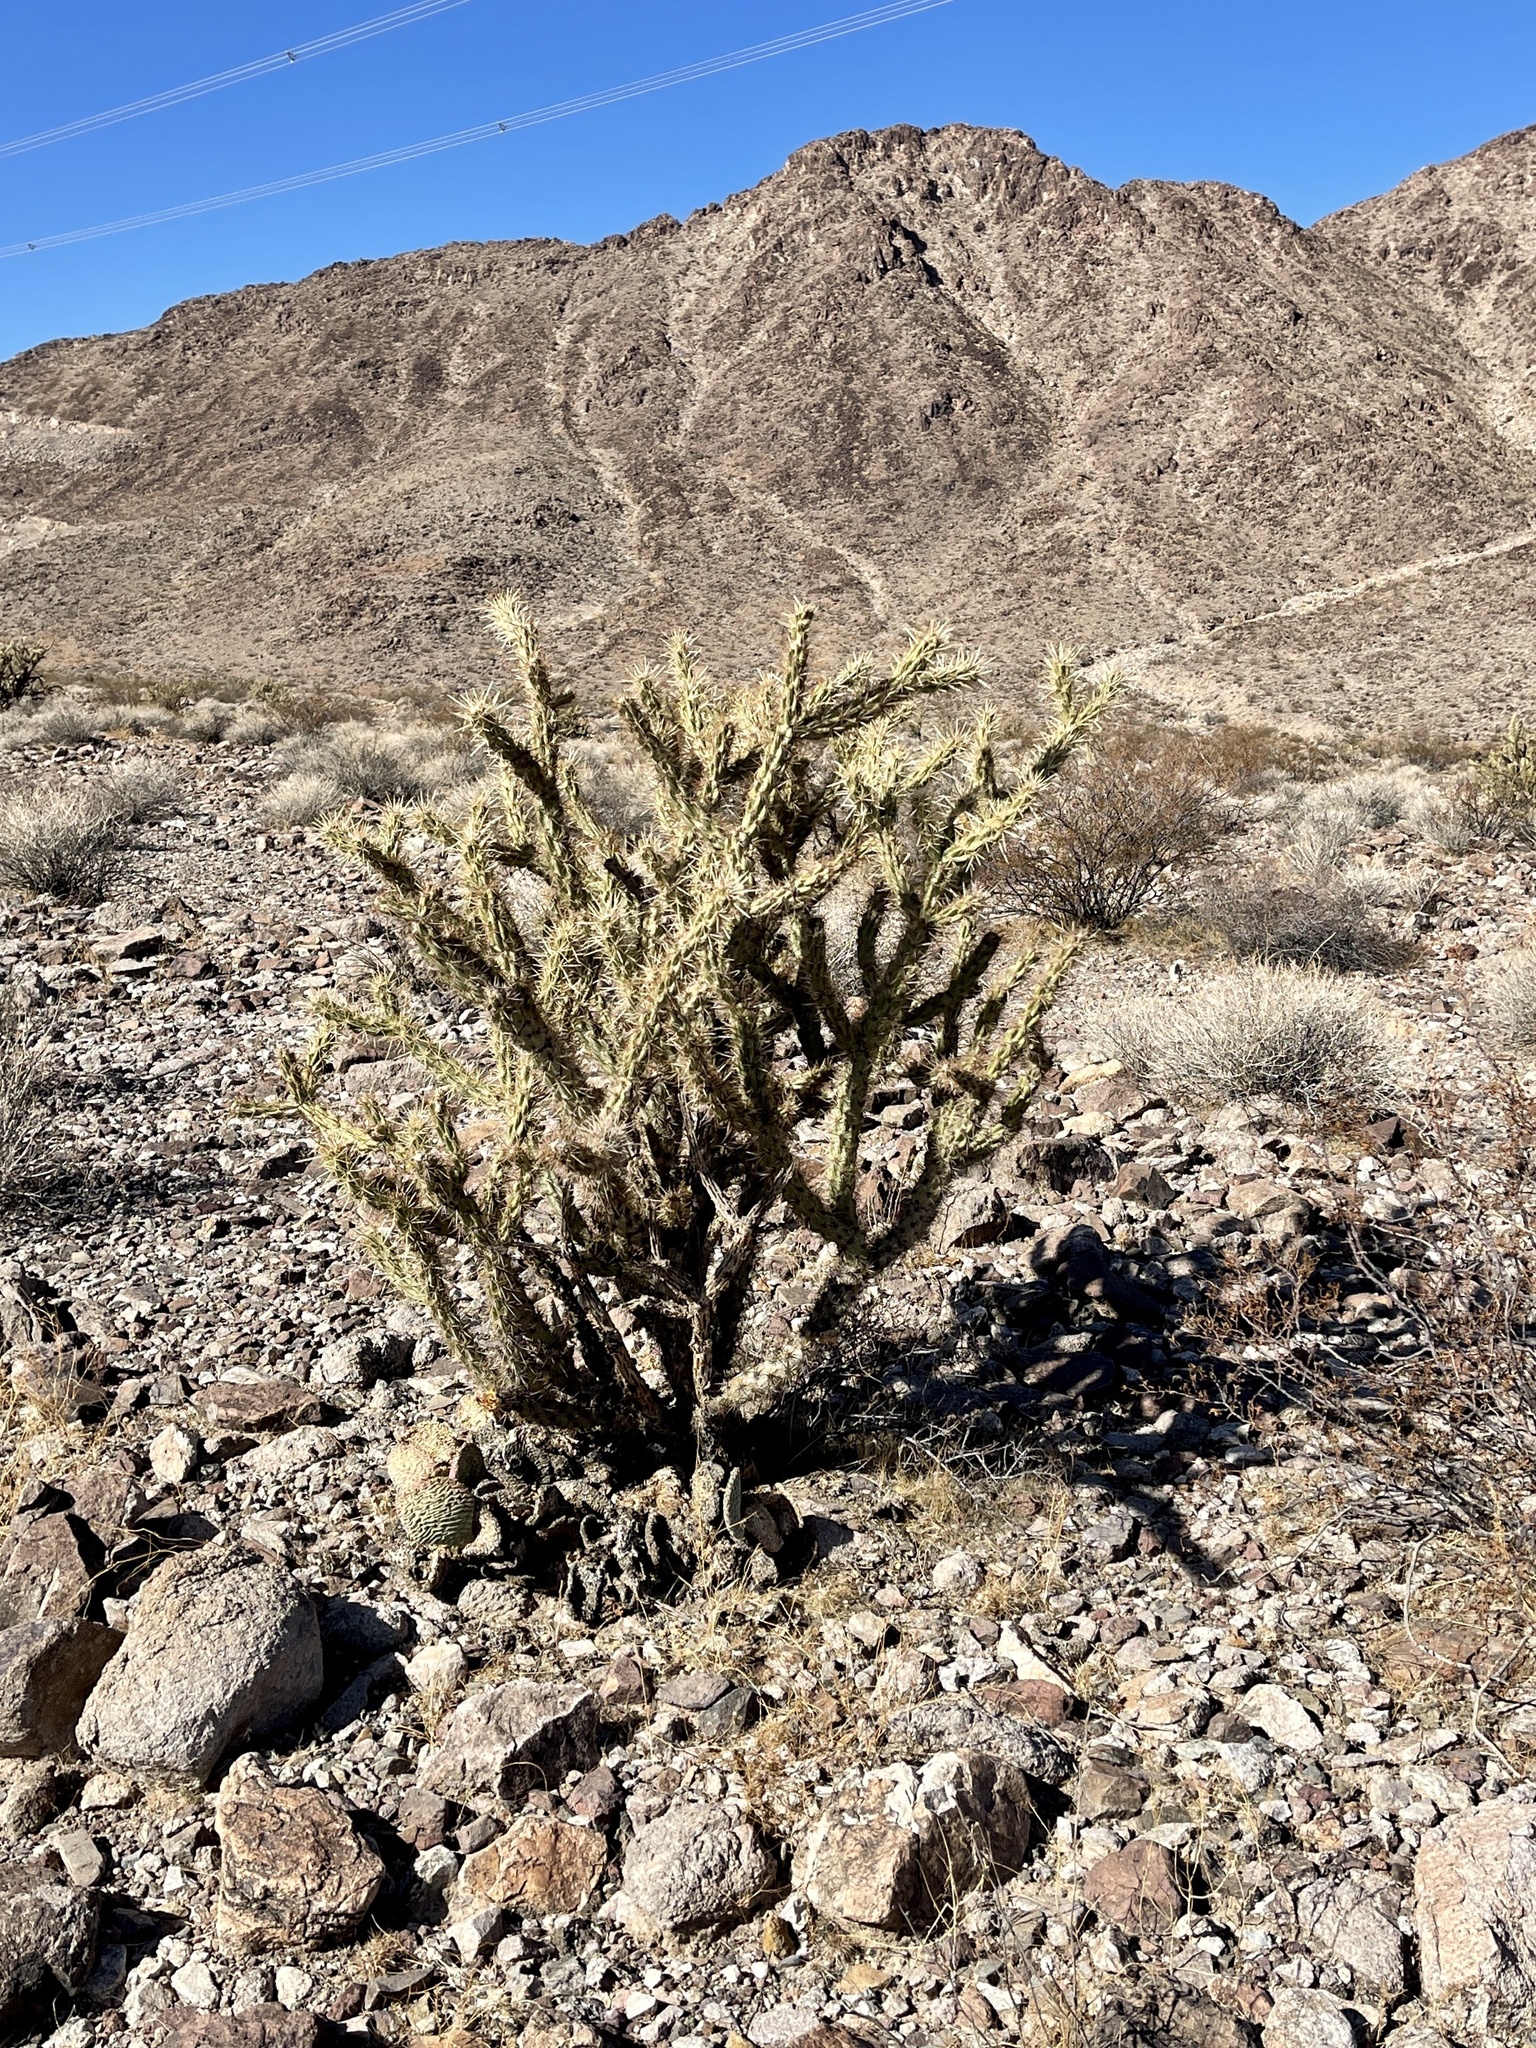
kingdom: Plantae
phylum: Tracheophyta
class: Magnoliopsida
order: Caryophyllales
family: Cactaceae
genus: Cylindropuntia
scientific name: Cylindropuntia acanthocarpa
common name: Buckhorn cholla
